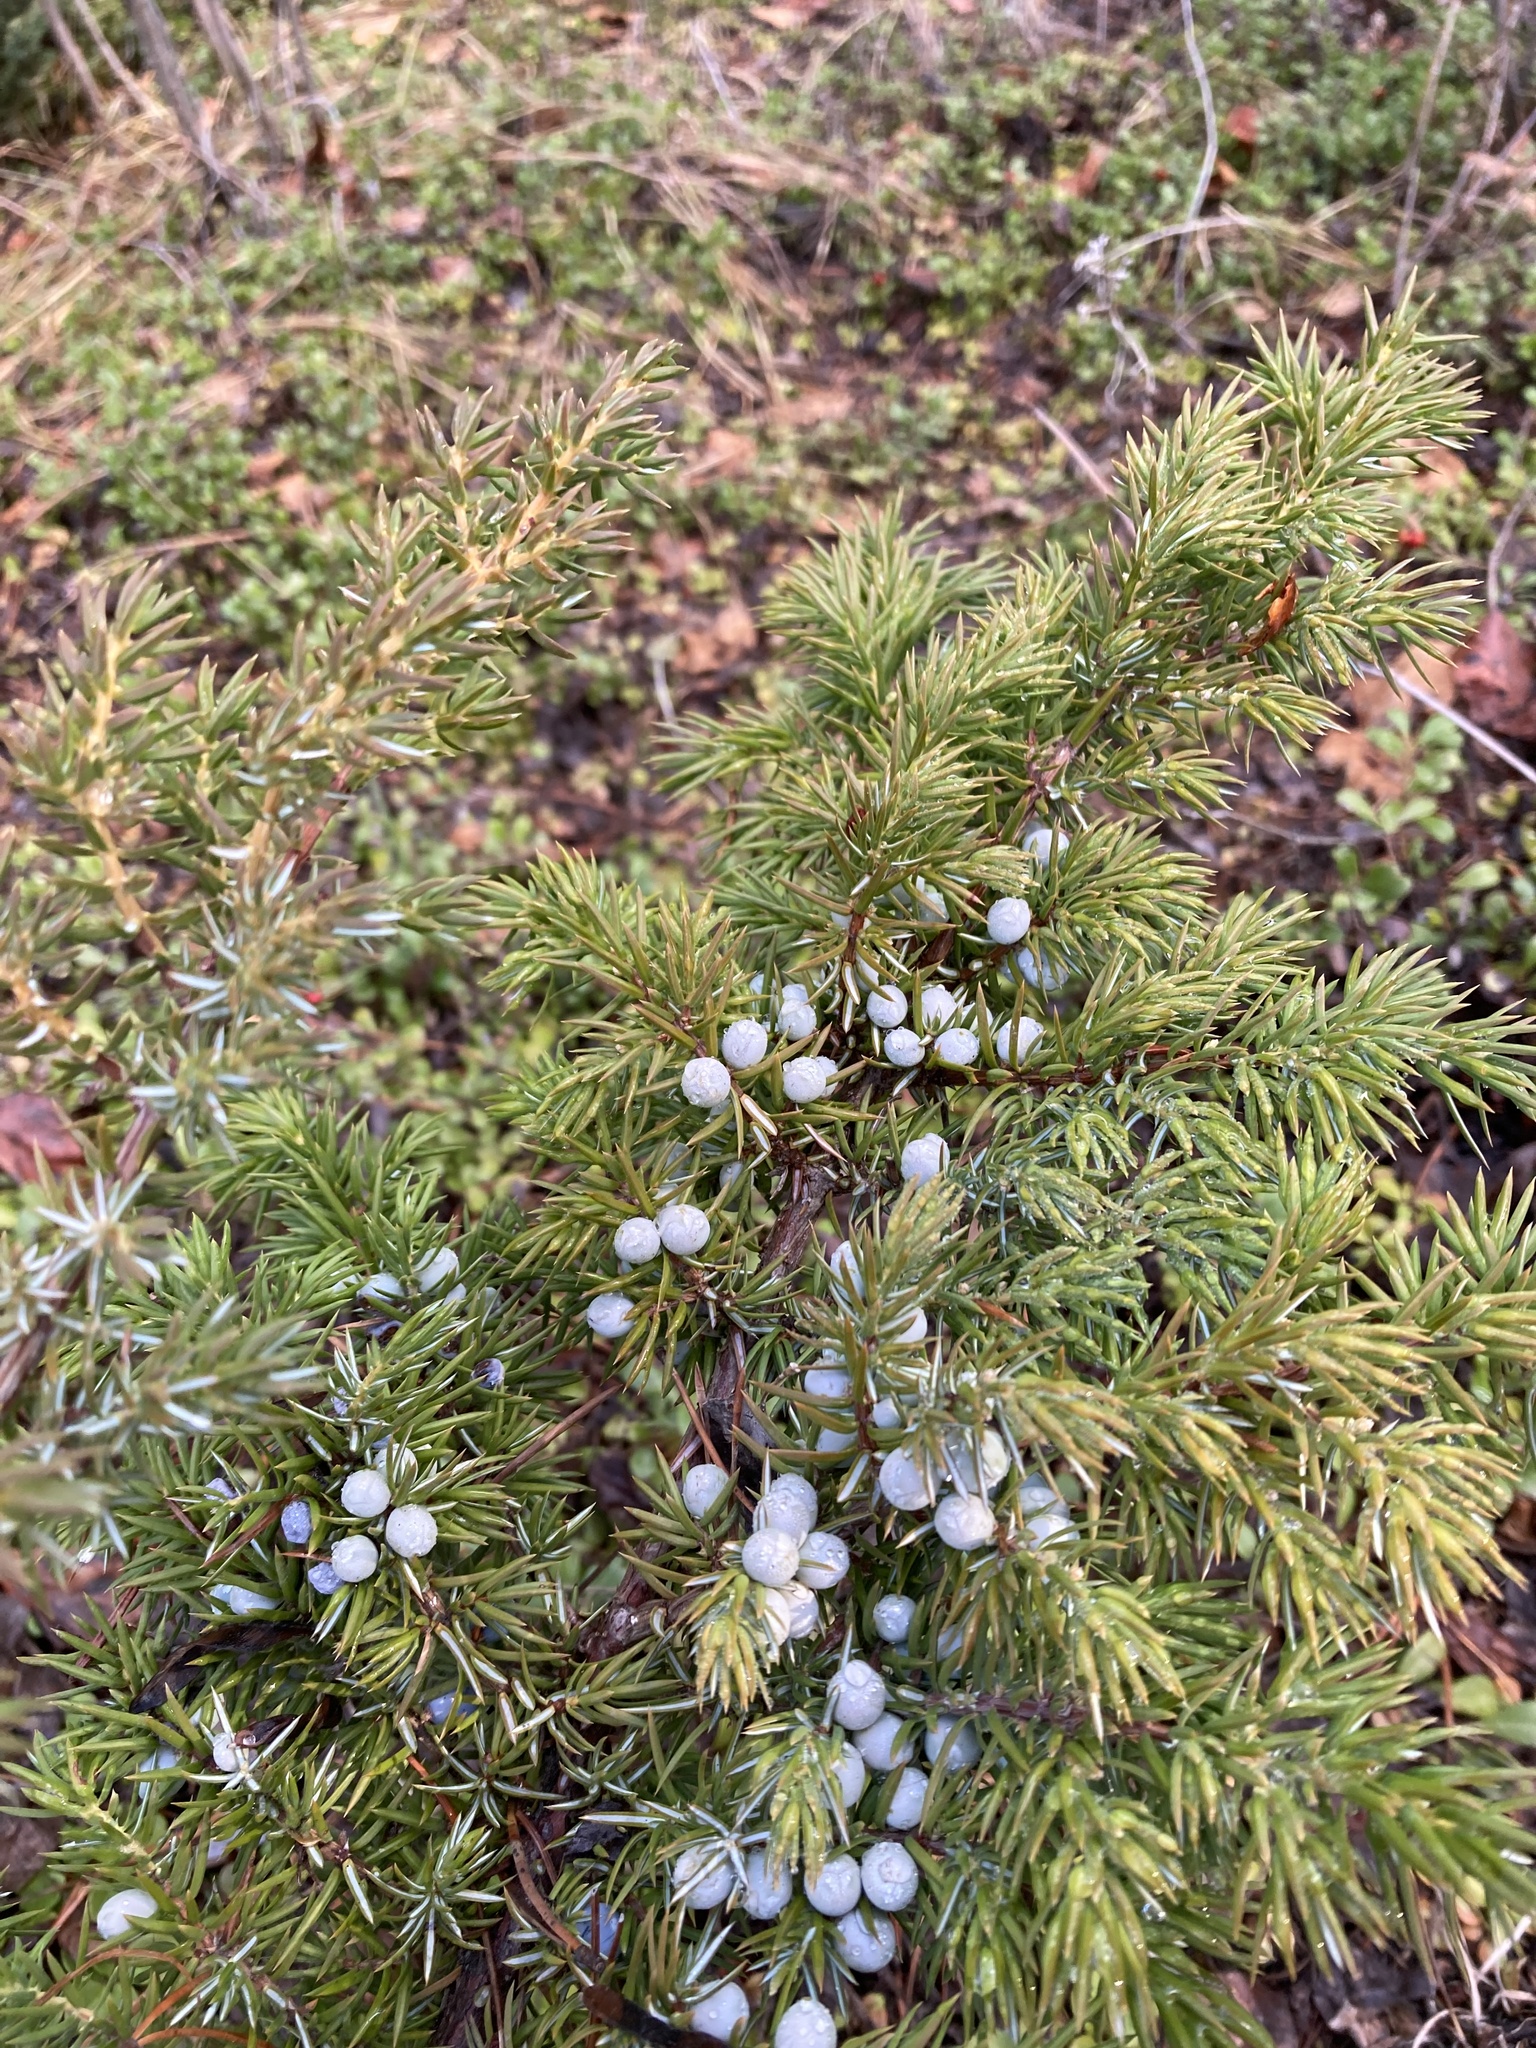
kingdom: Plantae
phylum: Tracheophyta
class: Pinopsida
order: Pinales
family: Cupressaceae
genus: Juniperus
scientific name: Juniperus communis
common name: Common juniper
